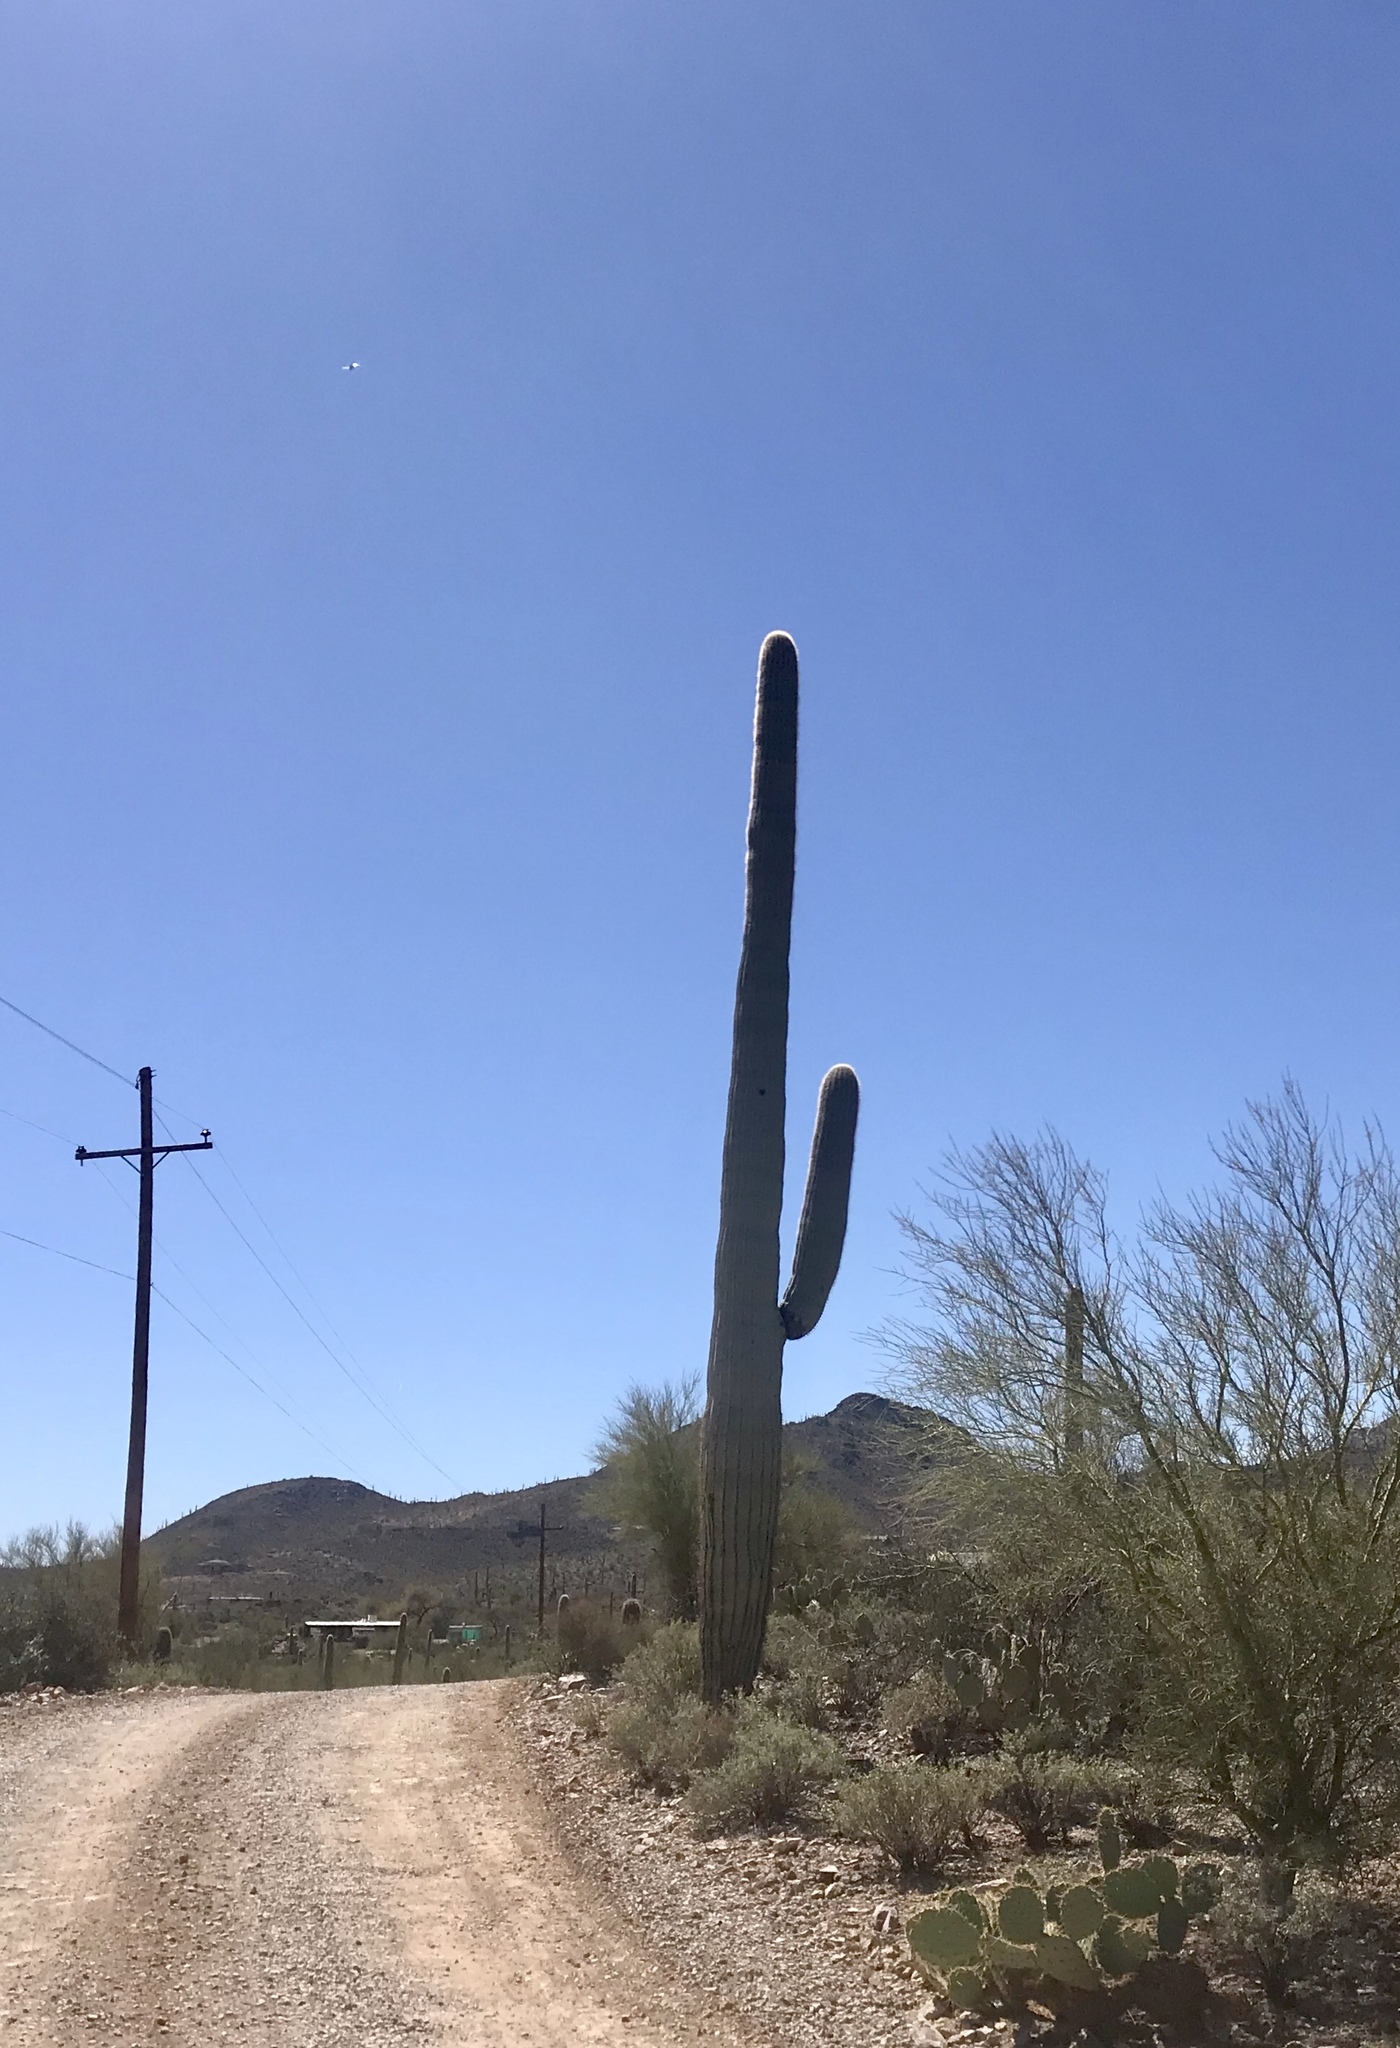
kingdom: Plantae
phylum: Tracheophyta
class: Magnoliopsida
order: Caryophyllales
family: Cactaceae
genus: Carnegiea
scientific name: Carnegiea gigantea
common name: Saguaro
